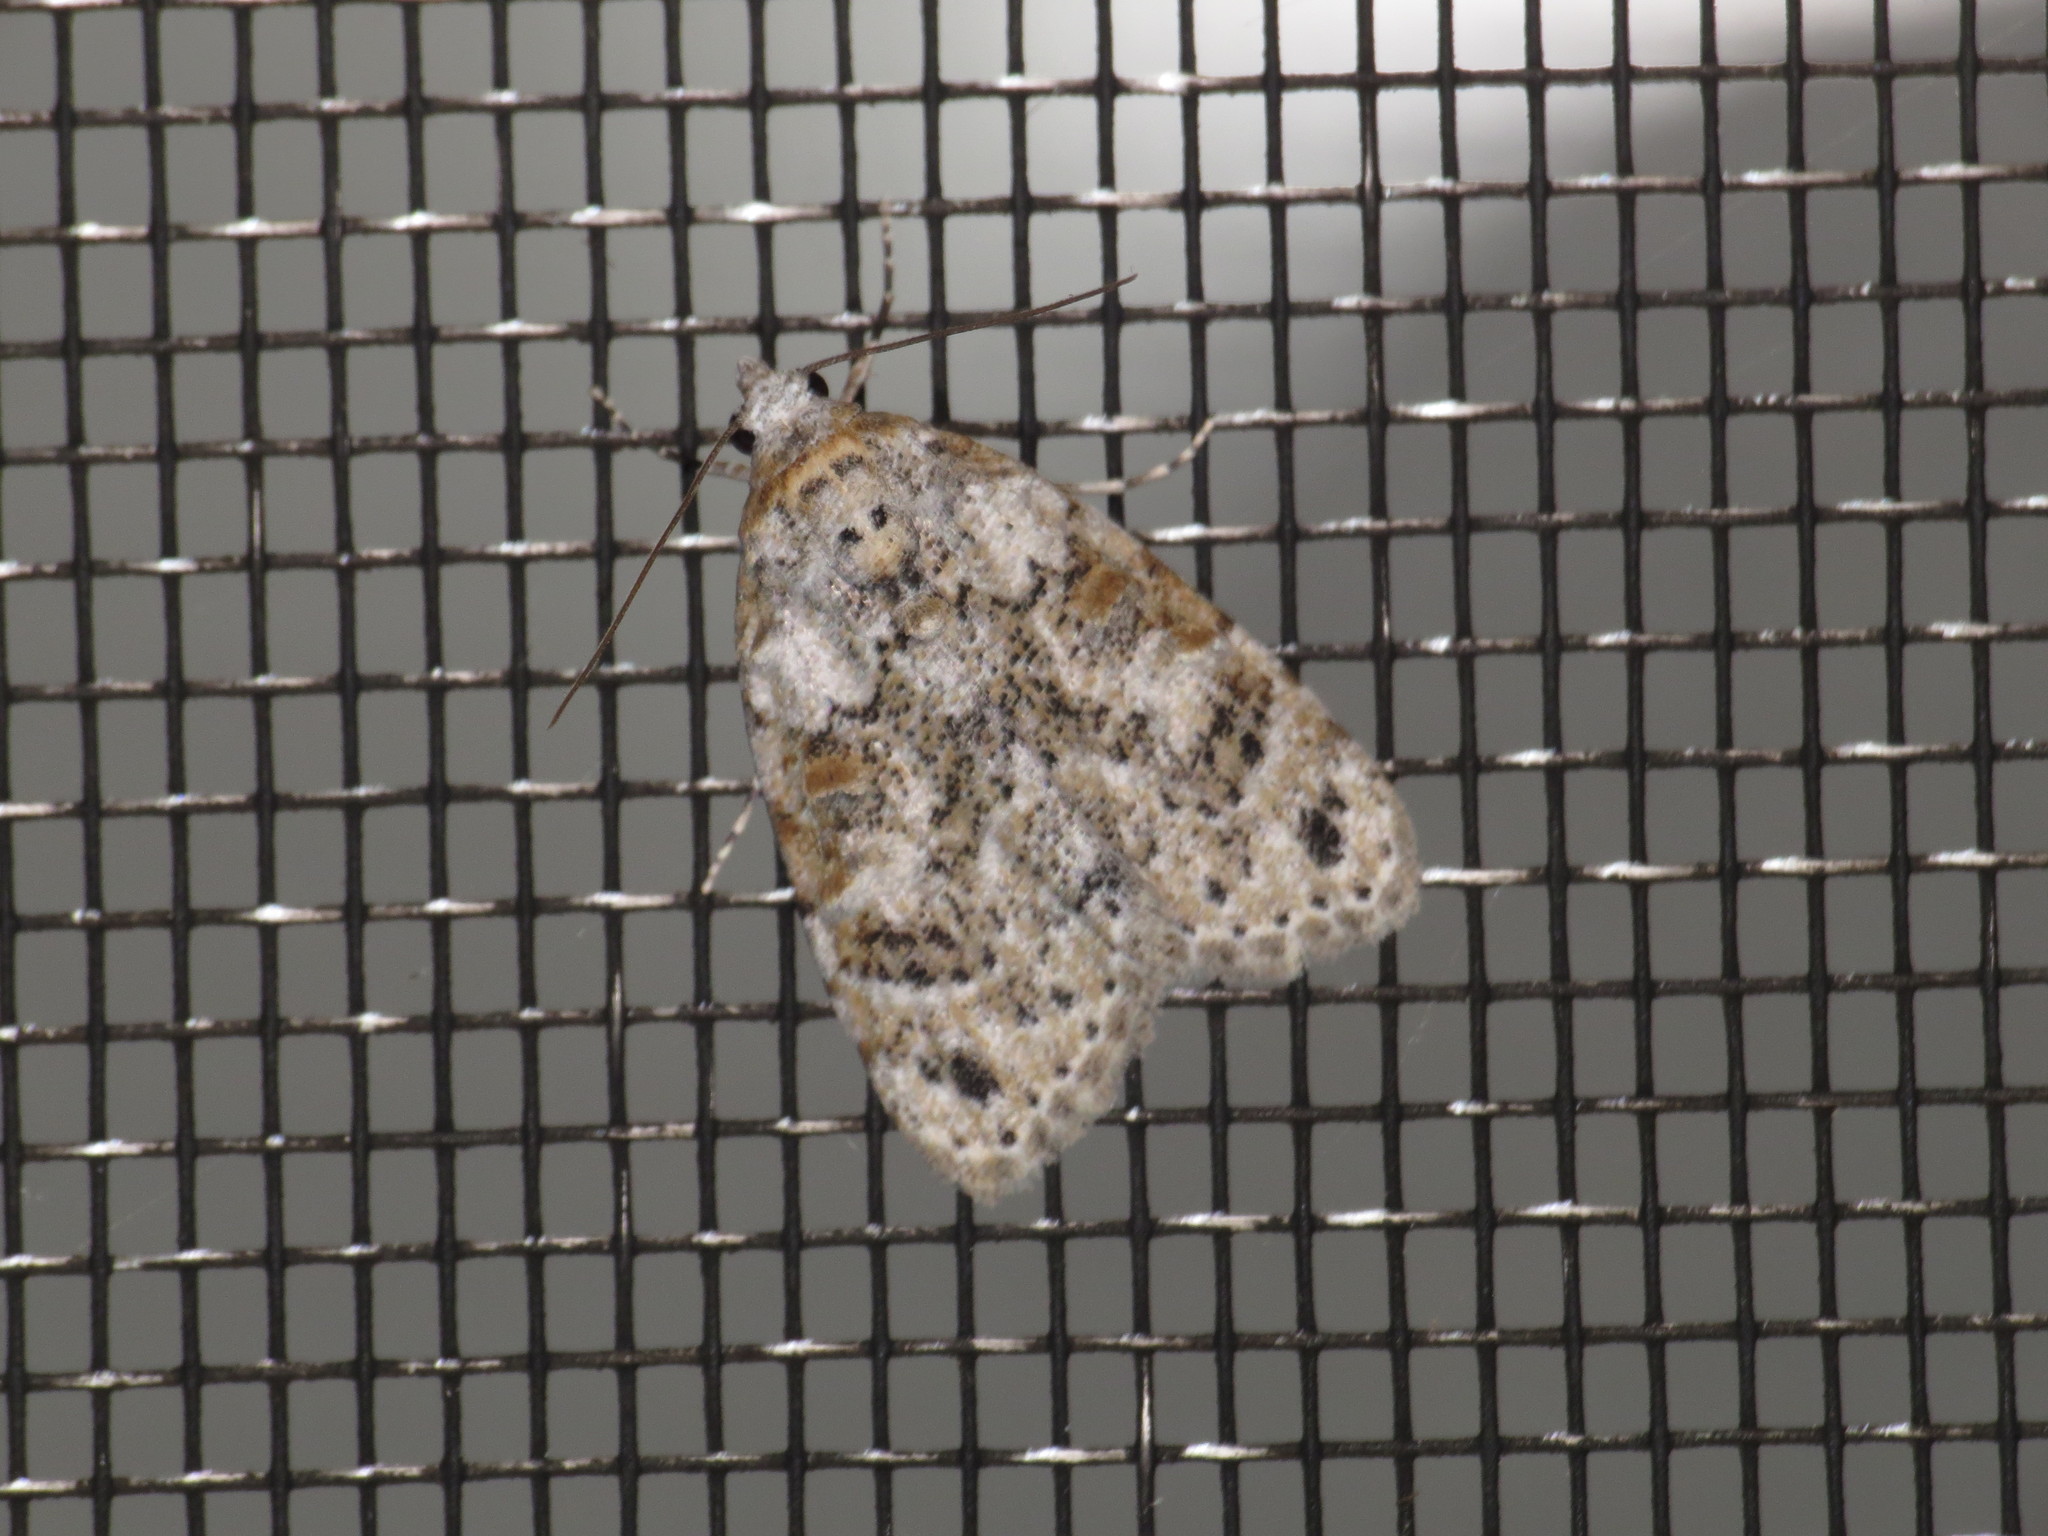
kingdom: Animalia
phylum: Arthropoda
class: Insecta
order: Lepidoptera
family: Nolidae
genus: Nola
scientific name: Nola epicentra
